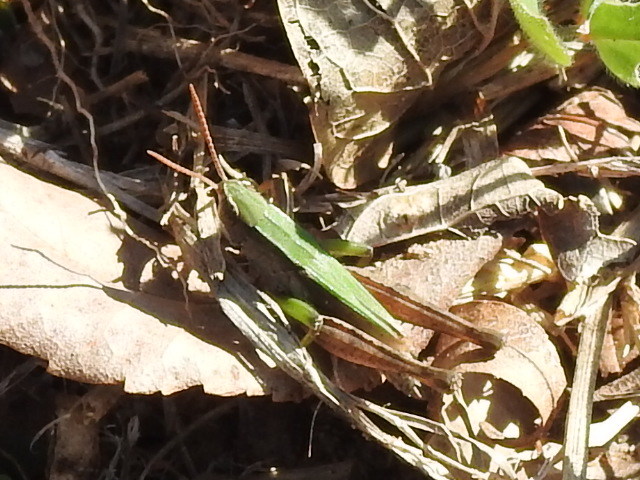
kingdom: Animalia
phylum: Arthropoda
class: Insecta
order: Orthoptera
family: Acrididae
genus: Dichromorpha
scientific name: Dichromorpha viridis
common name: Short-winged green grasshopper
